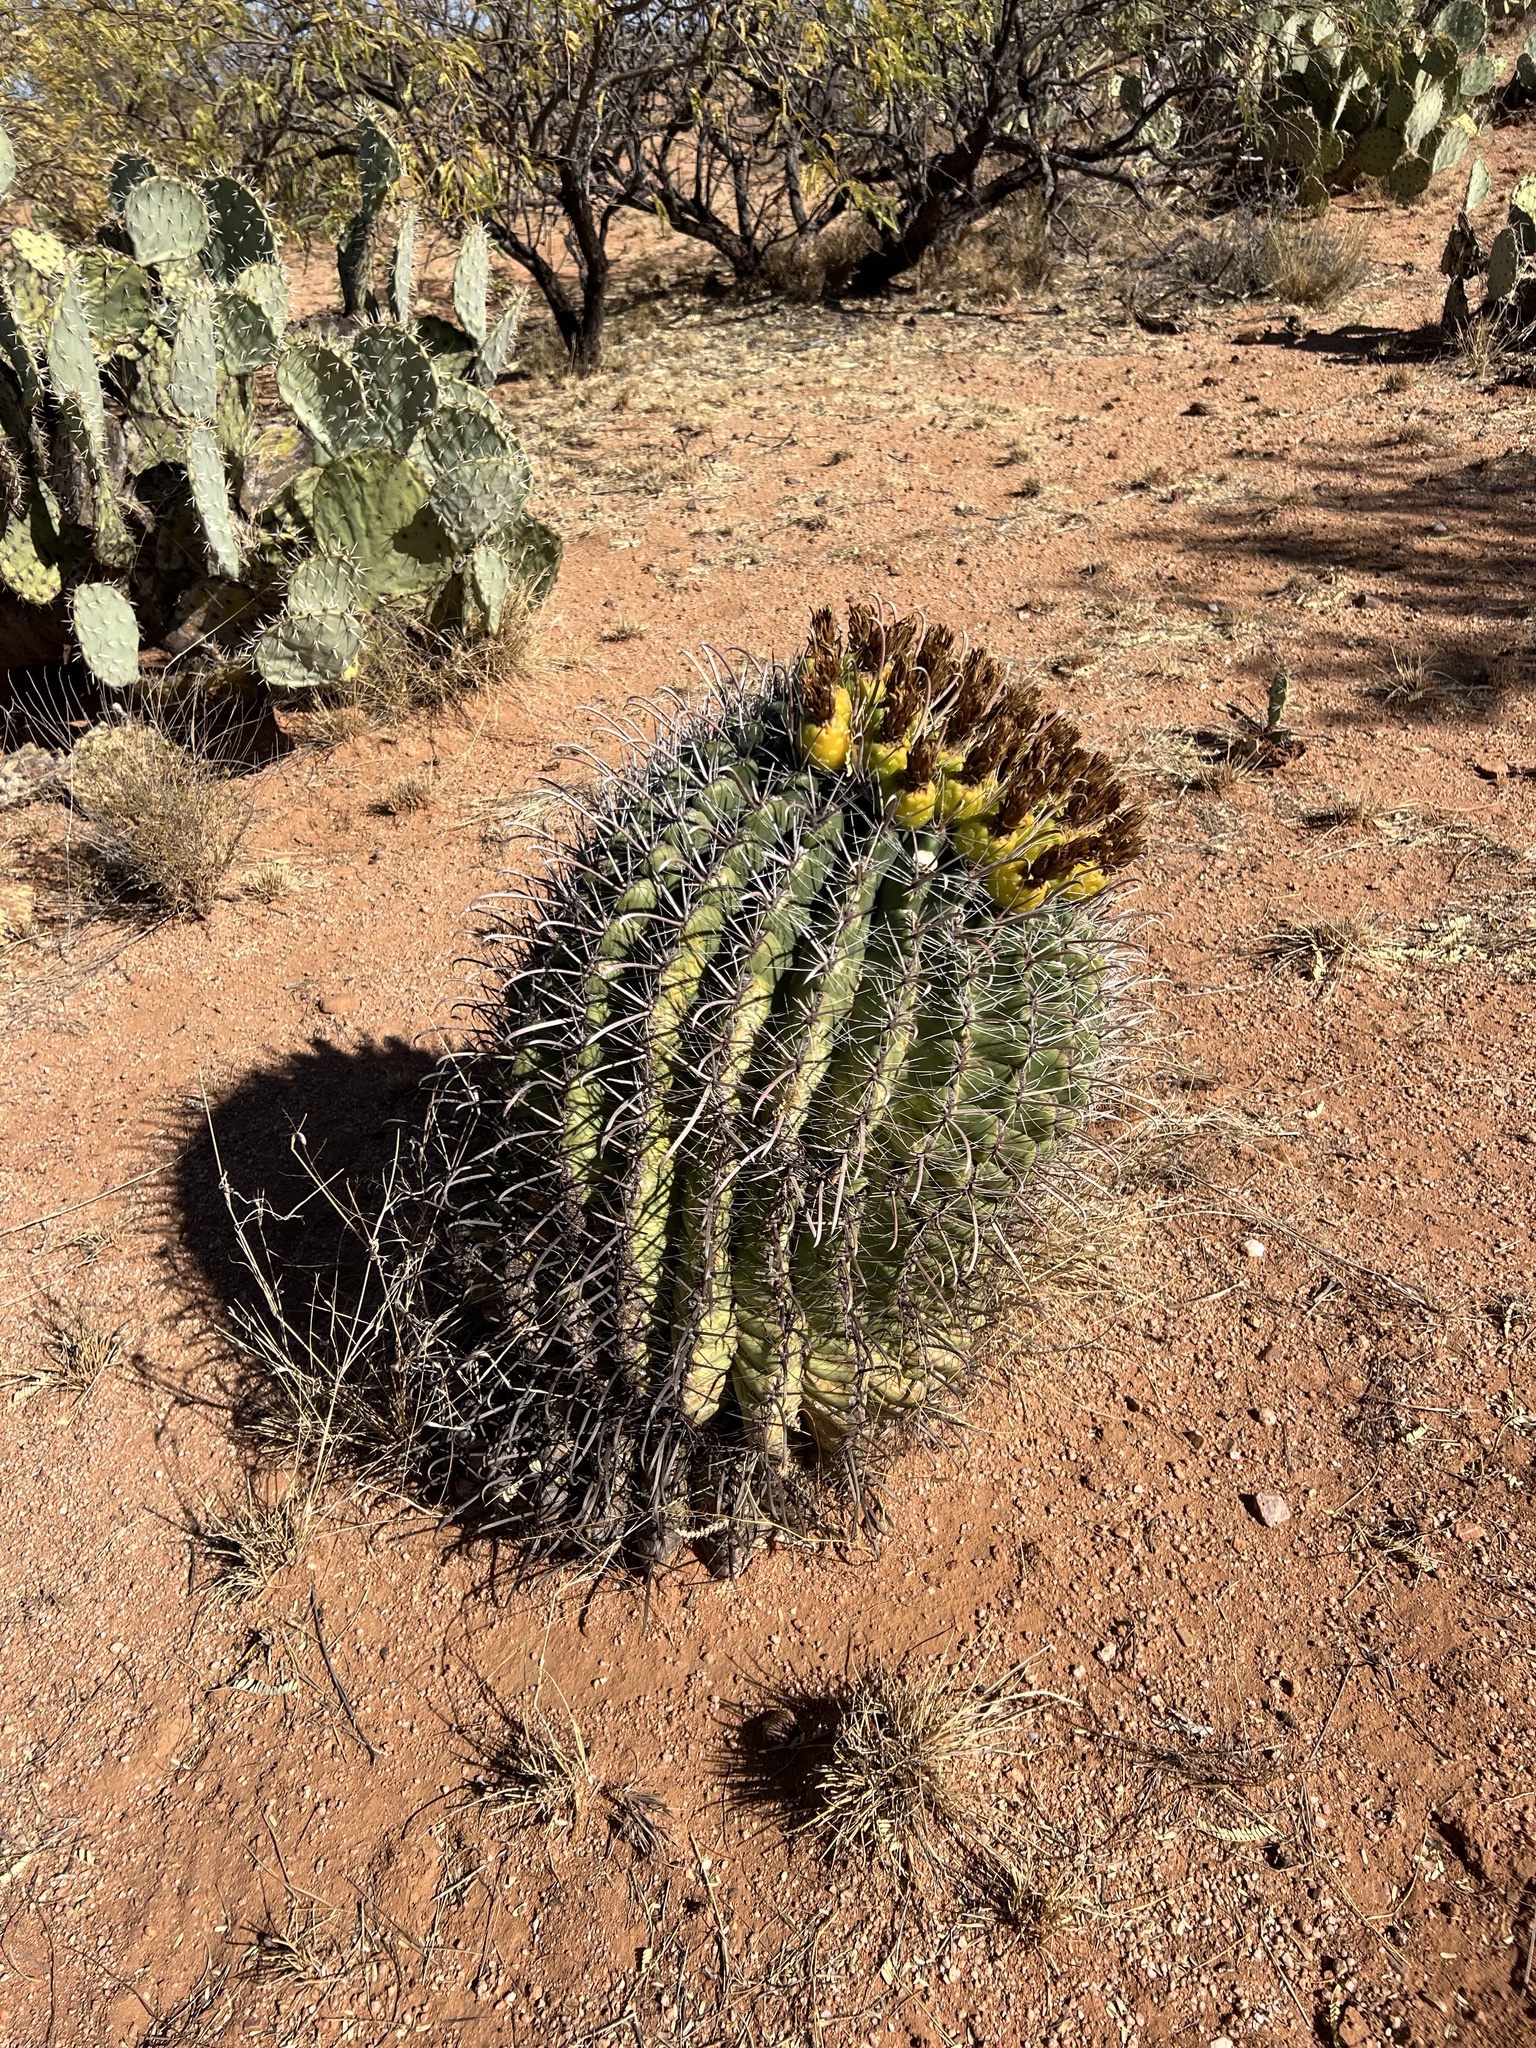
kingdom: Plantae
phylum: Tracheophyta
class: Magnoliopsida
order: Caryophyllales
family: Cactaceae
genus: Ferocactus
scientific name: Ferocactus wislizeni
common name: Candy barrel cactus
